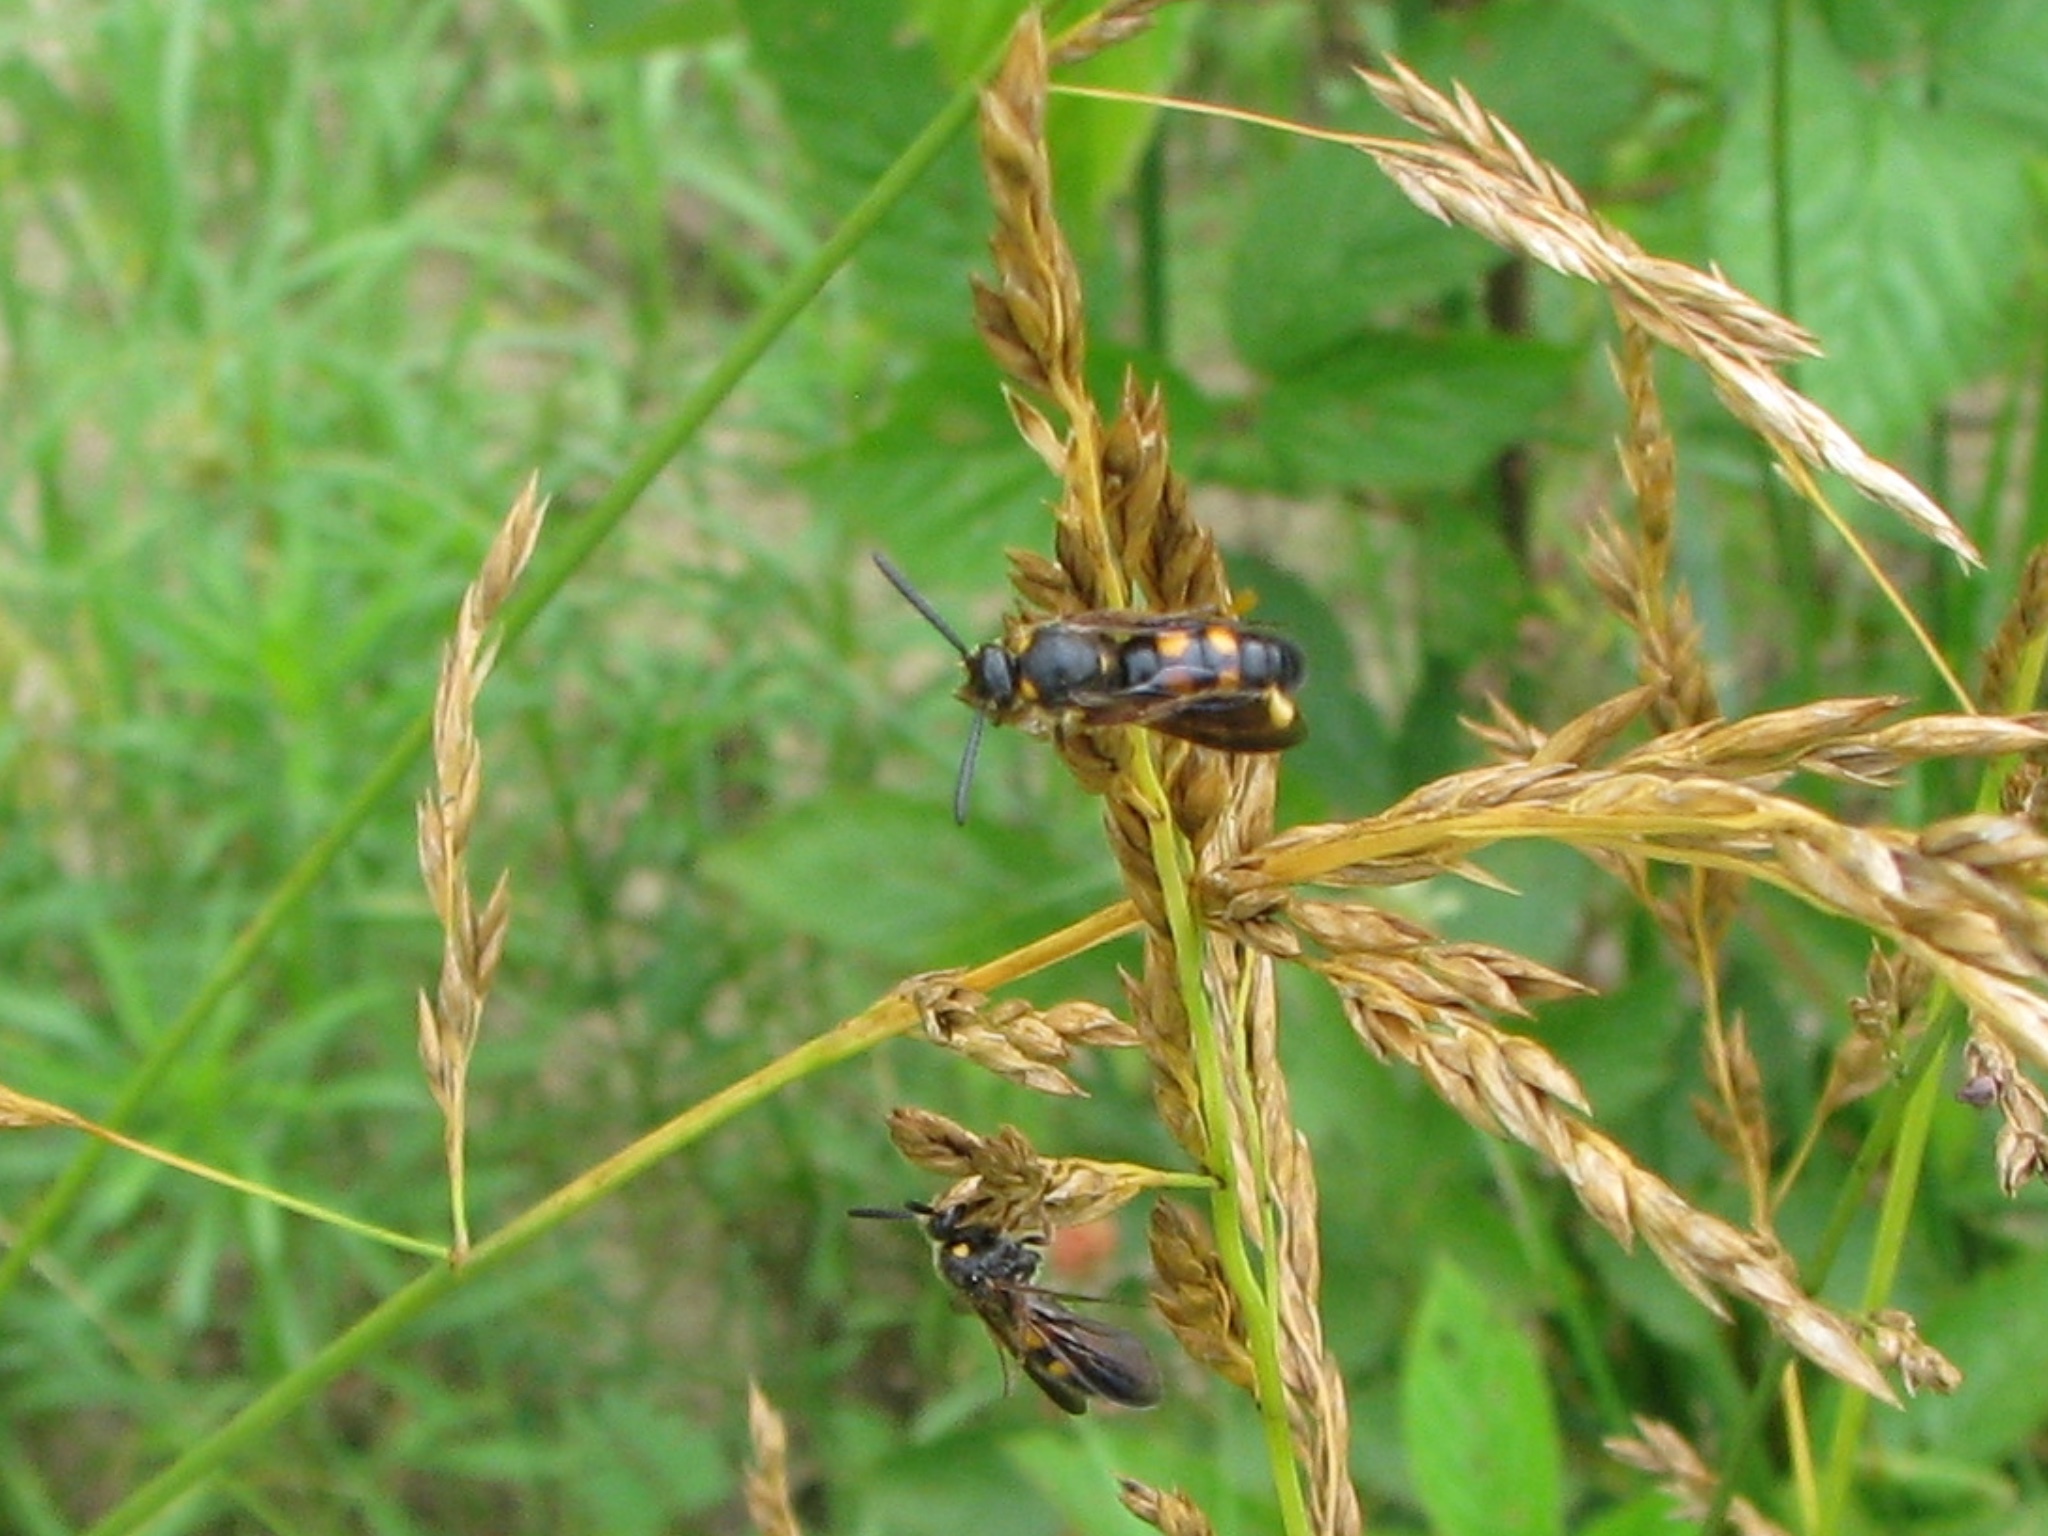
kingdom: Animalia
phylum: Arthropoda
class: Insecta
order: Hymenoptera
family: Scoliidae
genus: Scolia
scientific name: Scolia nobilitata
